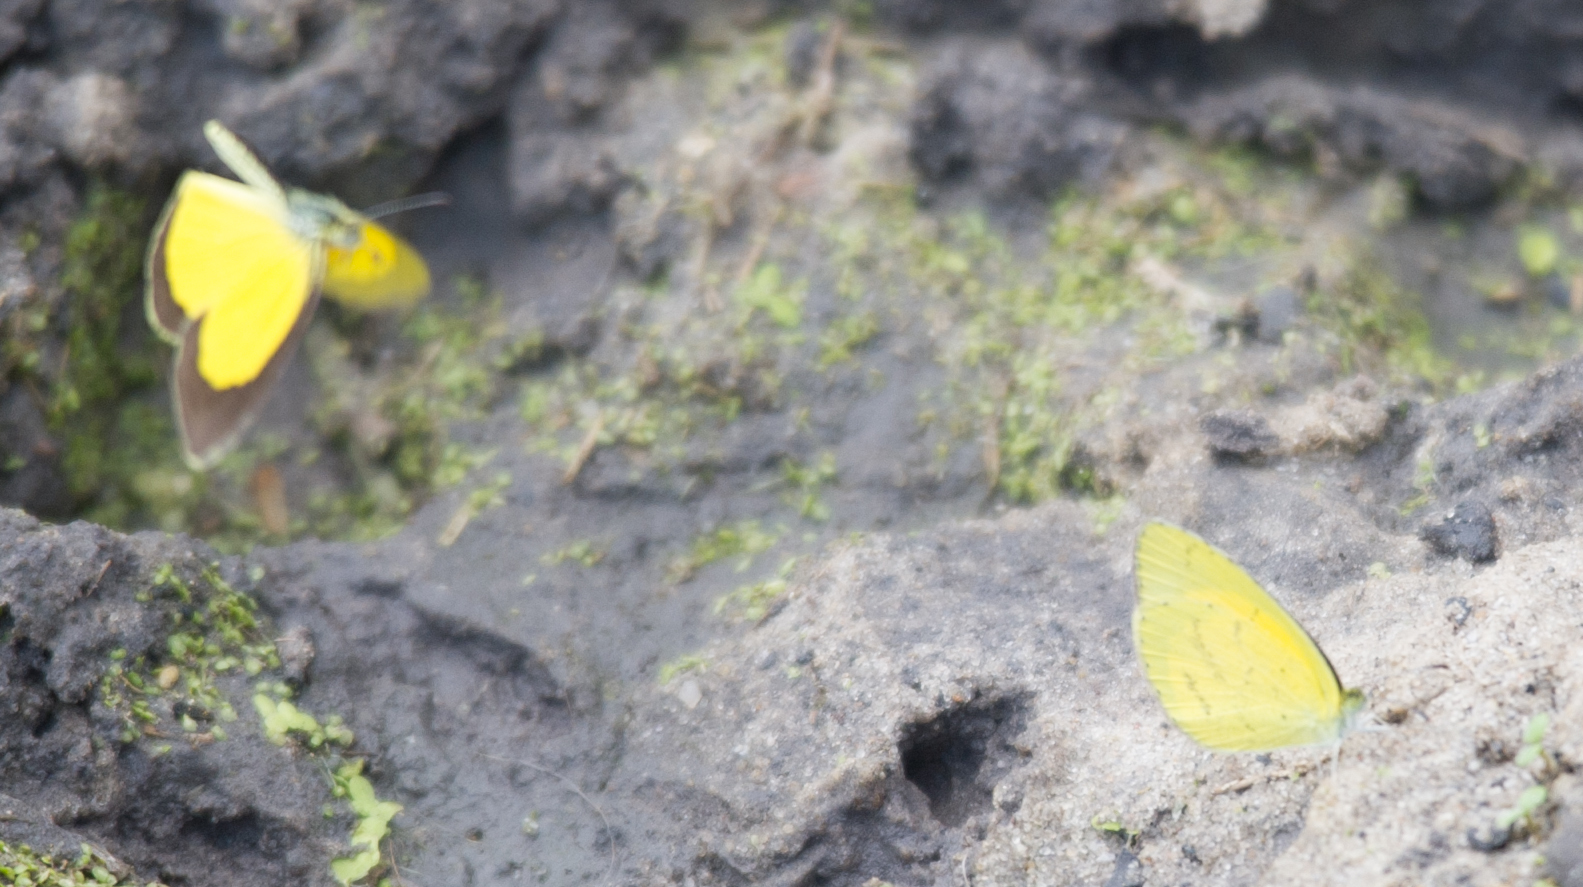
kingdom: Animalia
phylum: Arthropoda
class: Insecta
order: Lepidoptera
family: Pieridae
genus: Eurema
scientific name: Eurema brigitta
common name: Small grass yellow
